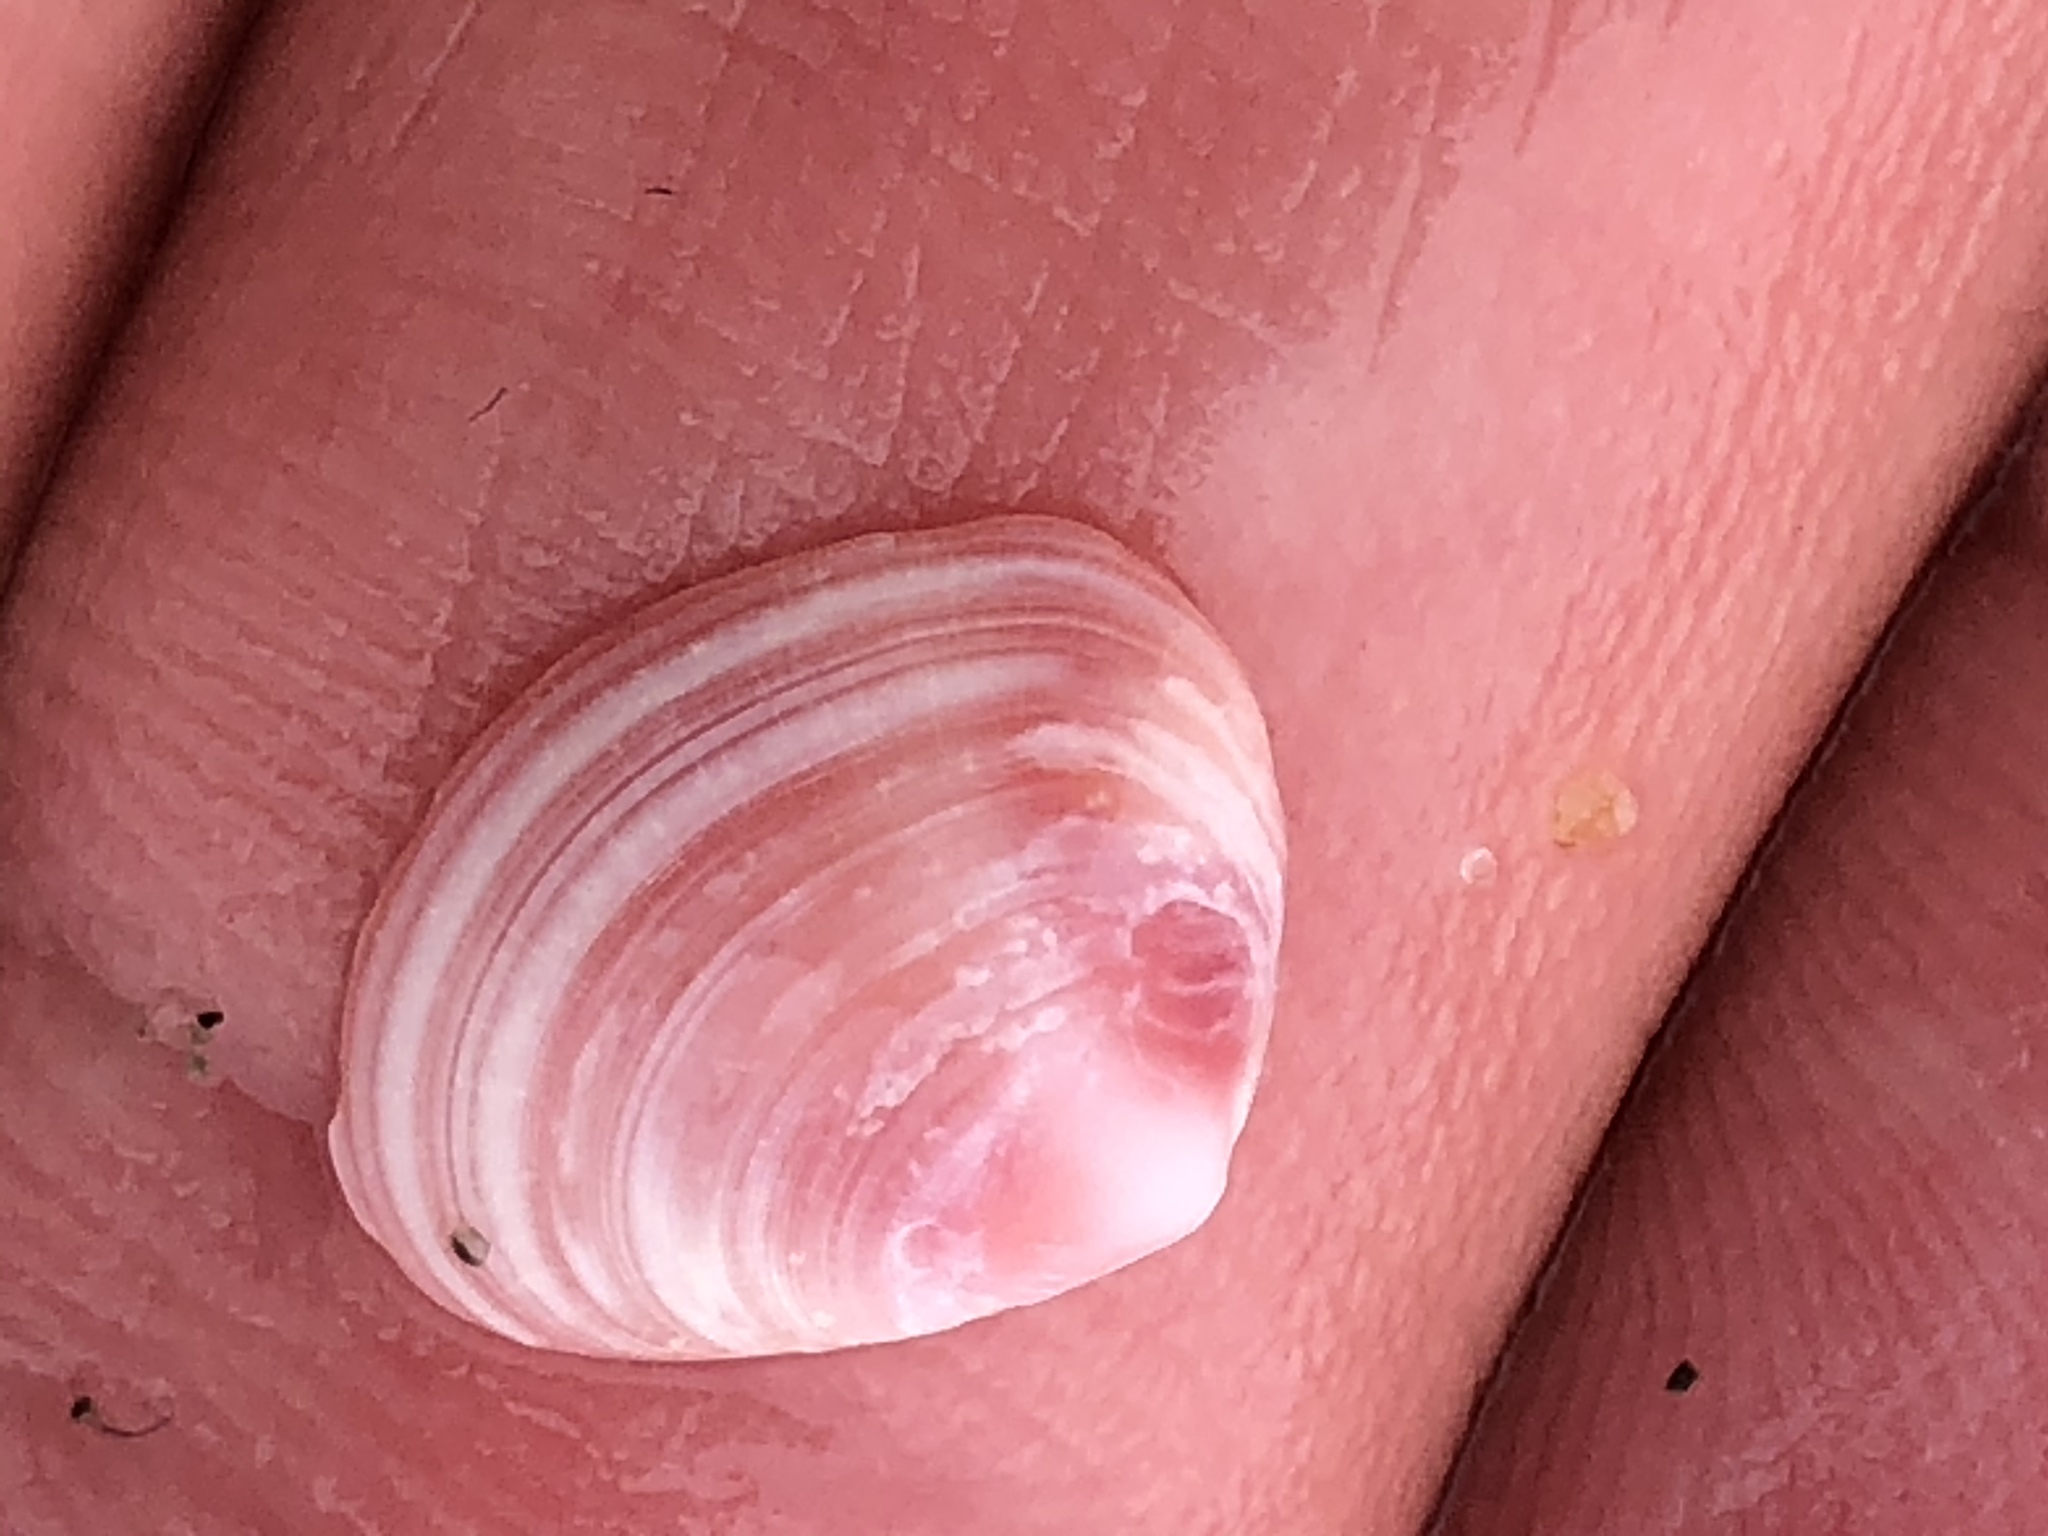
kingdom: Animalia
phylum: Mollusca
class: Bivalvia
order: Cardiida
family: Tellinidae
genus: Tellina
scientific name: Tellina nuculoides
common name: Salmon tellin
